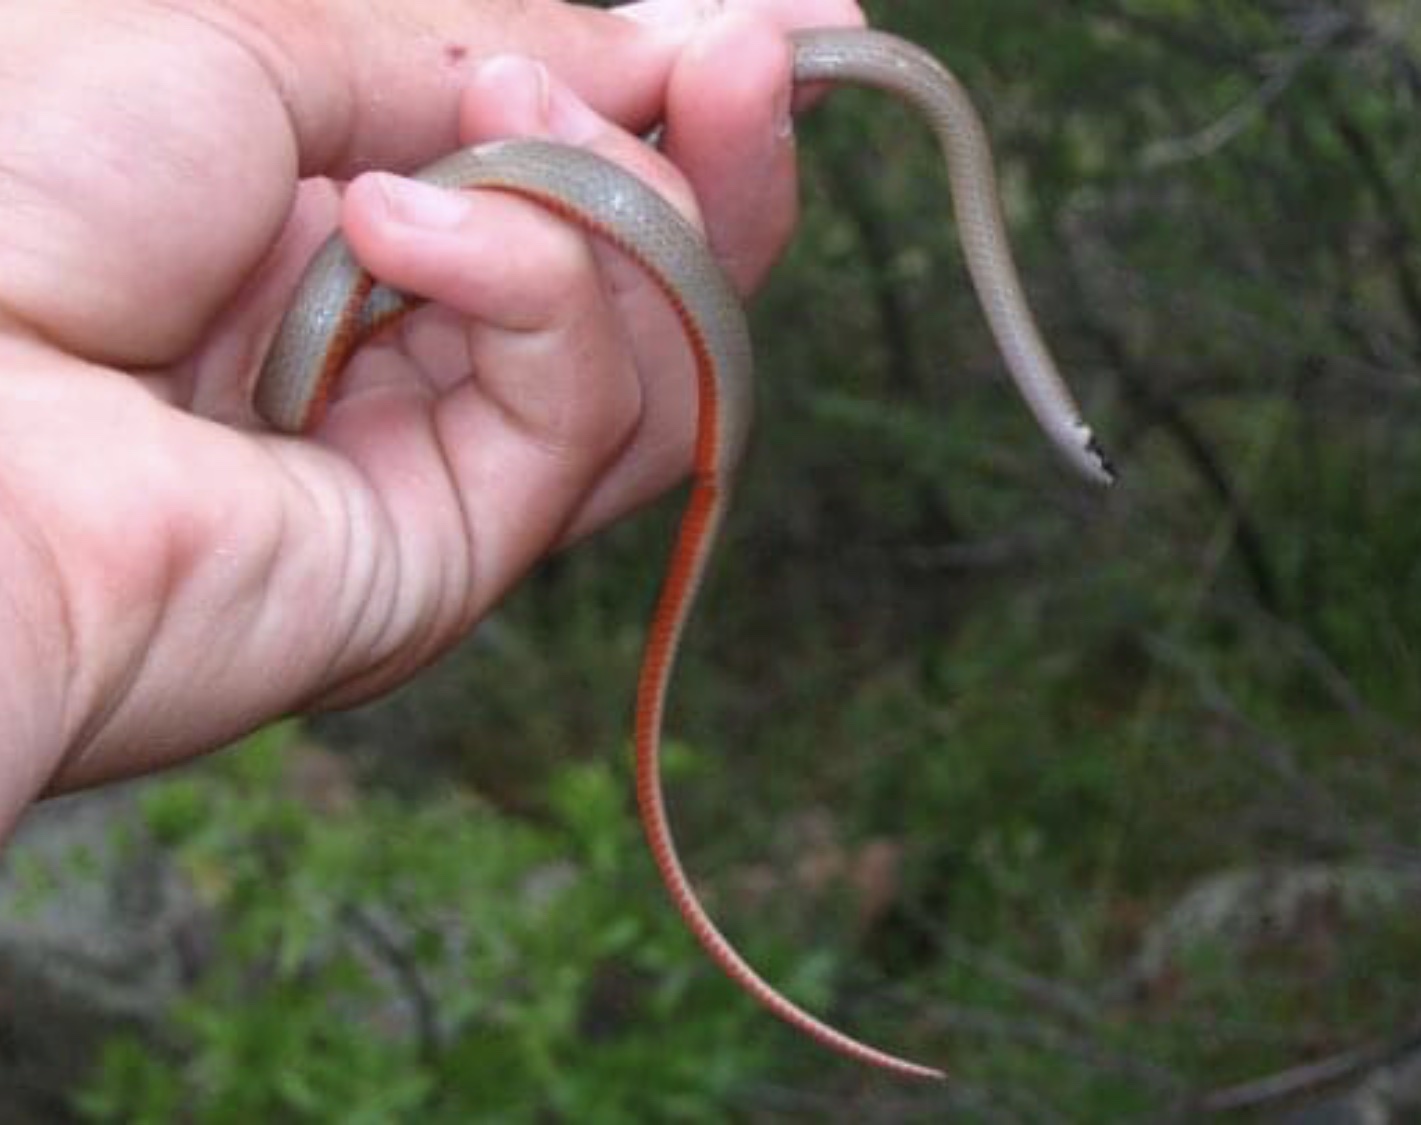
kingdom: Animalia
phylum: Chordata
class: Squamata
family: Colubridae
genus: Tantilla
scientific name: Tantilla wilcoxi
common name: Chihuahuan blackhead snake
